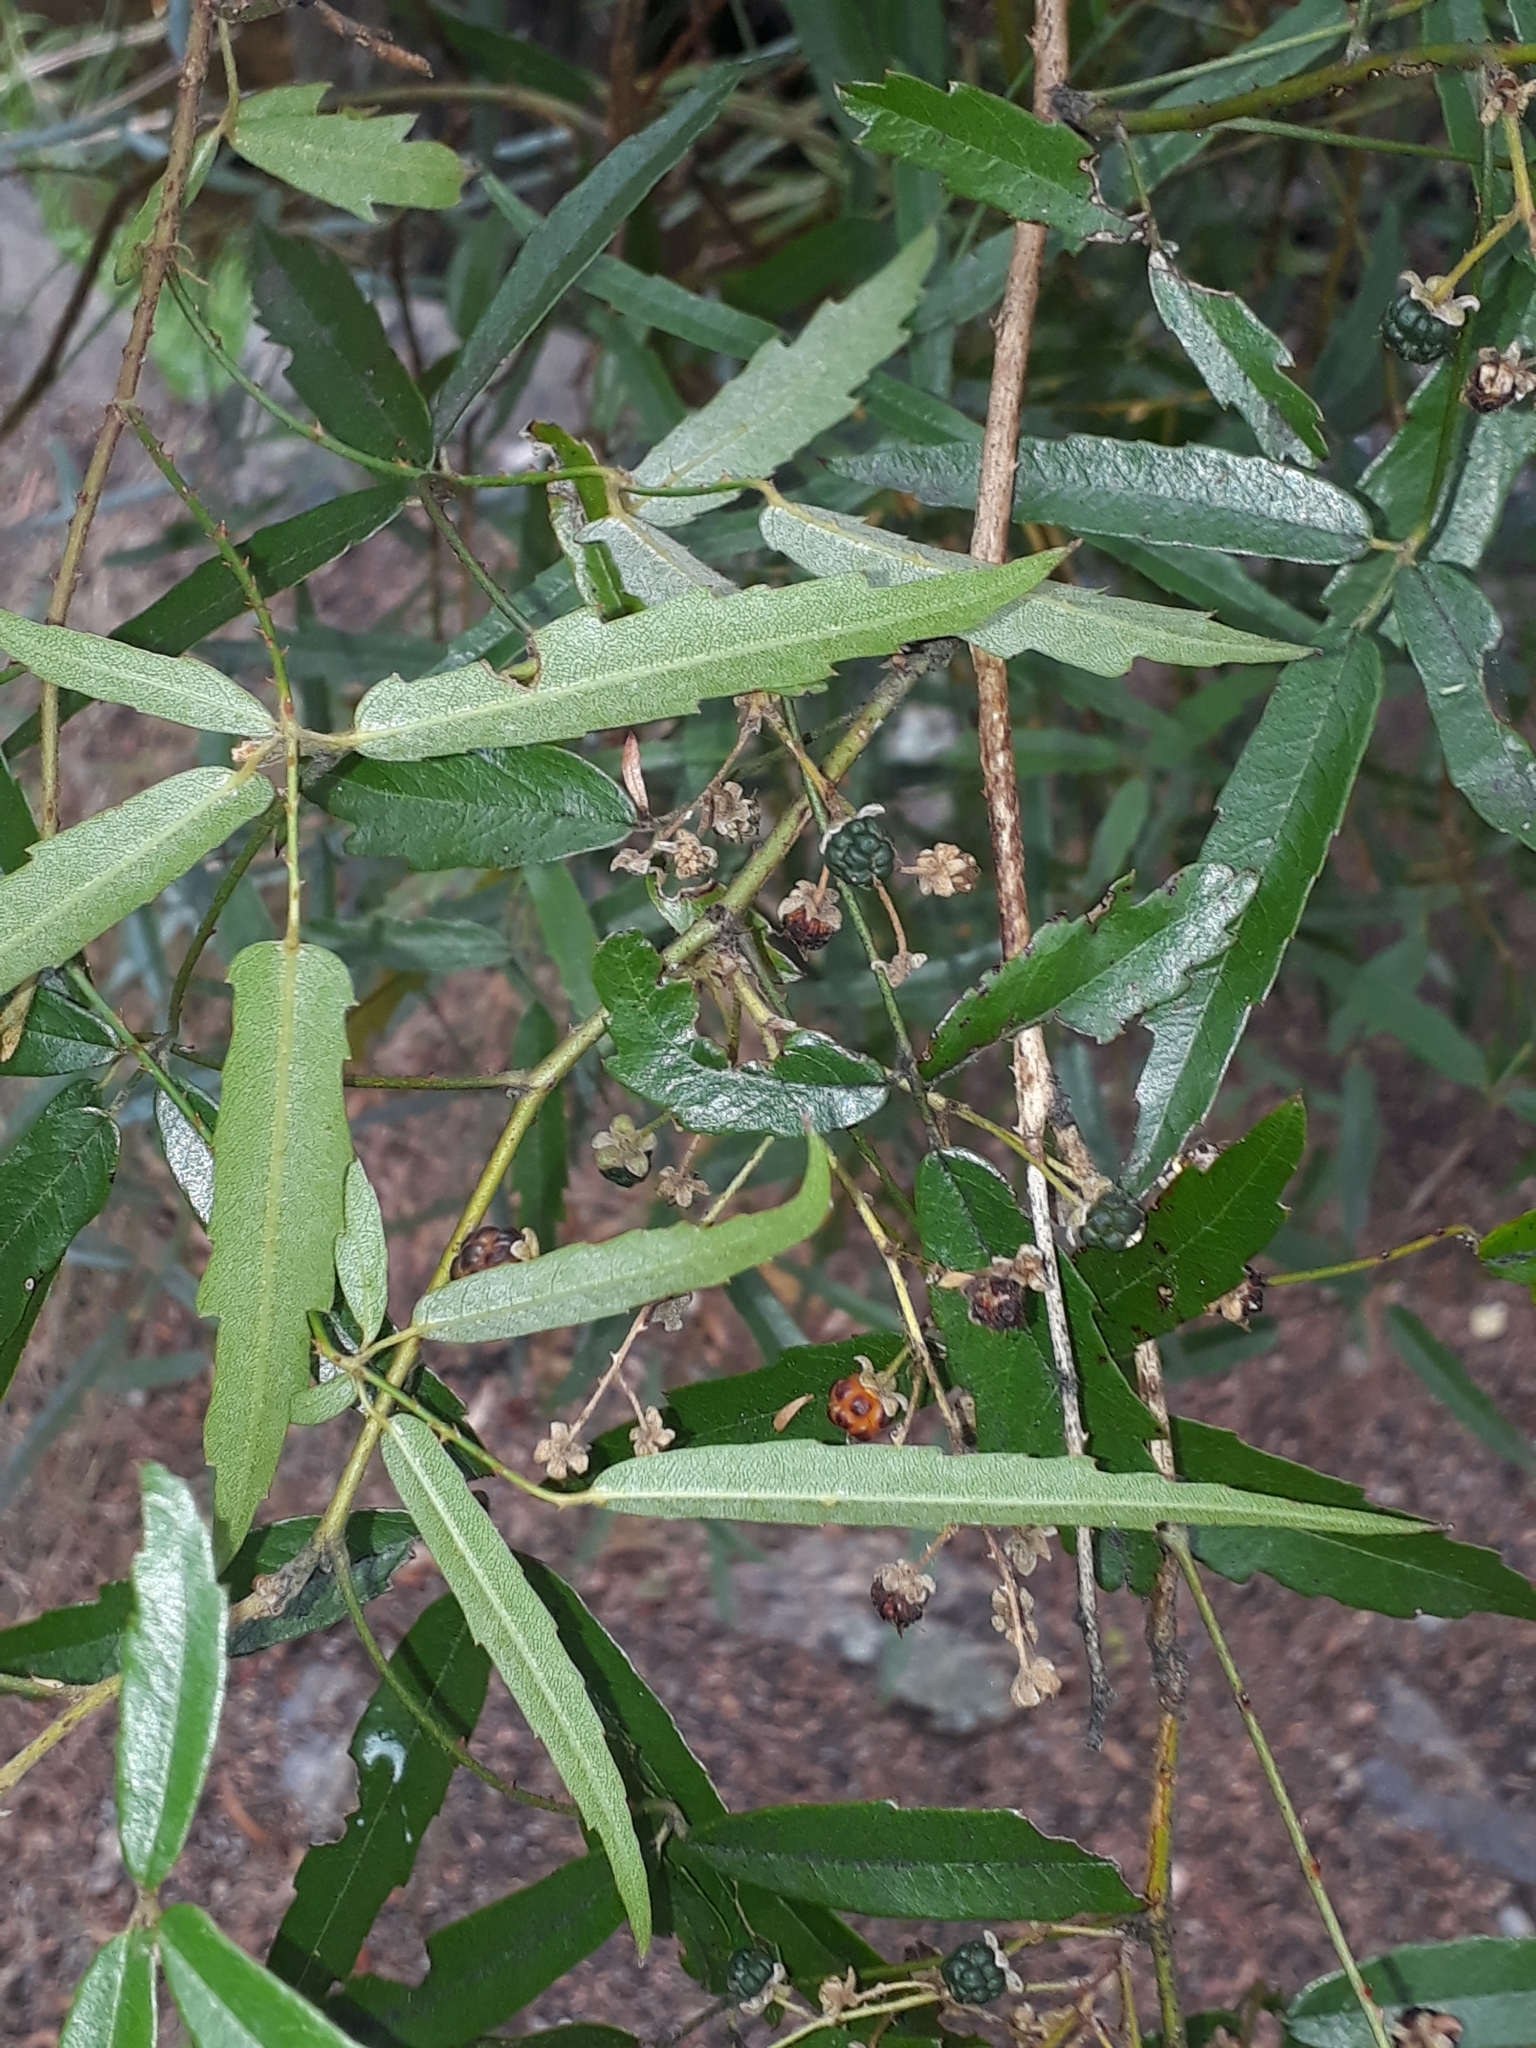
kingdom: Plantae
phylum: Tracheophyta
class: Magnoliopsida
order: Rosales
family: Rosaceae
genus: Rubus
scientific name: Rubus schmidelioides
